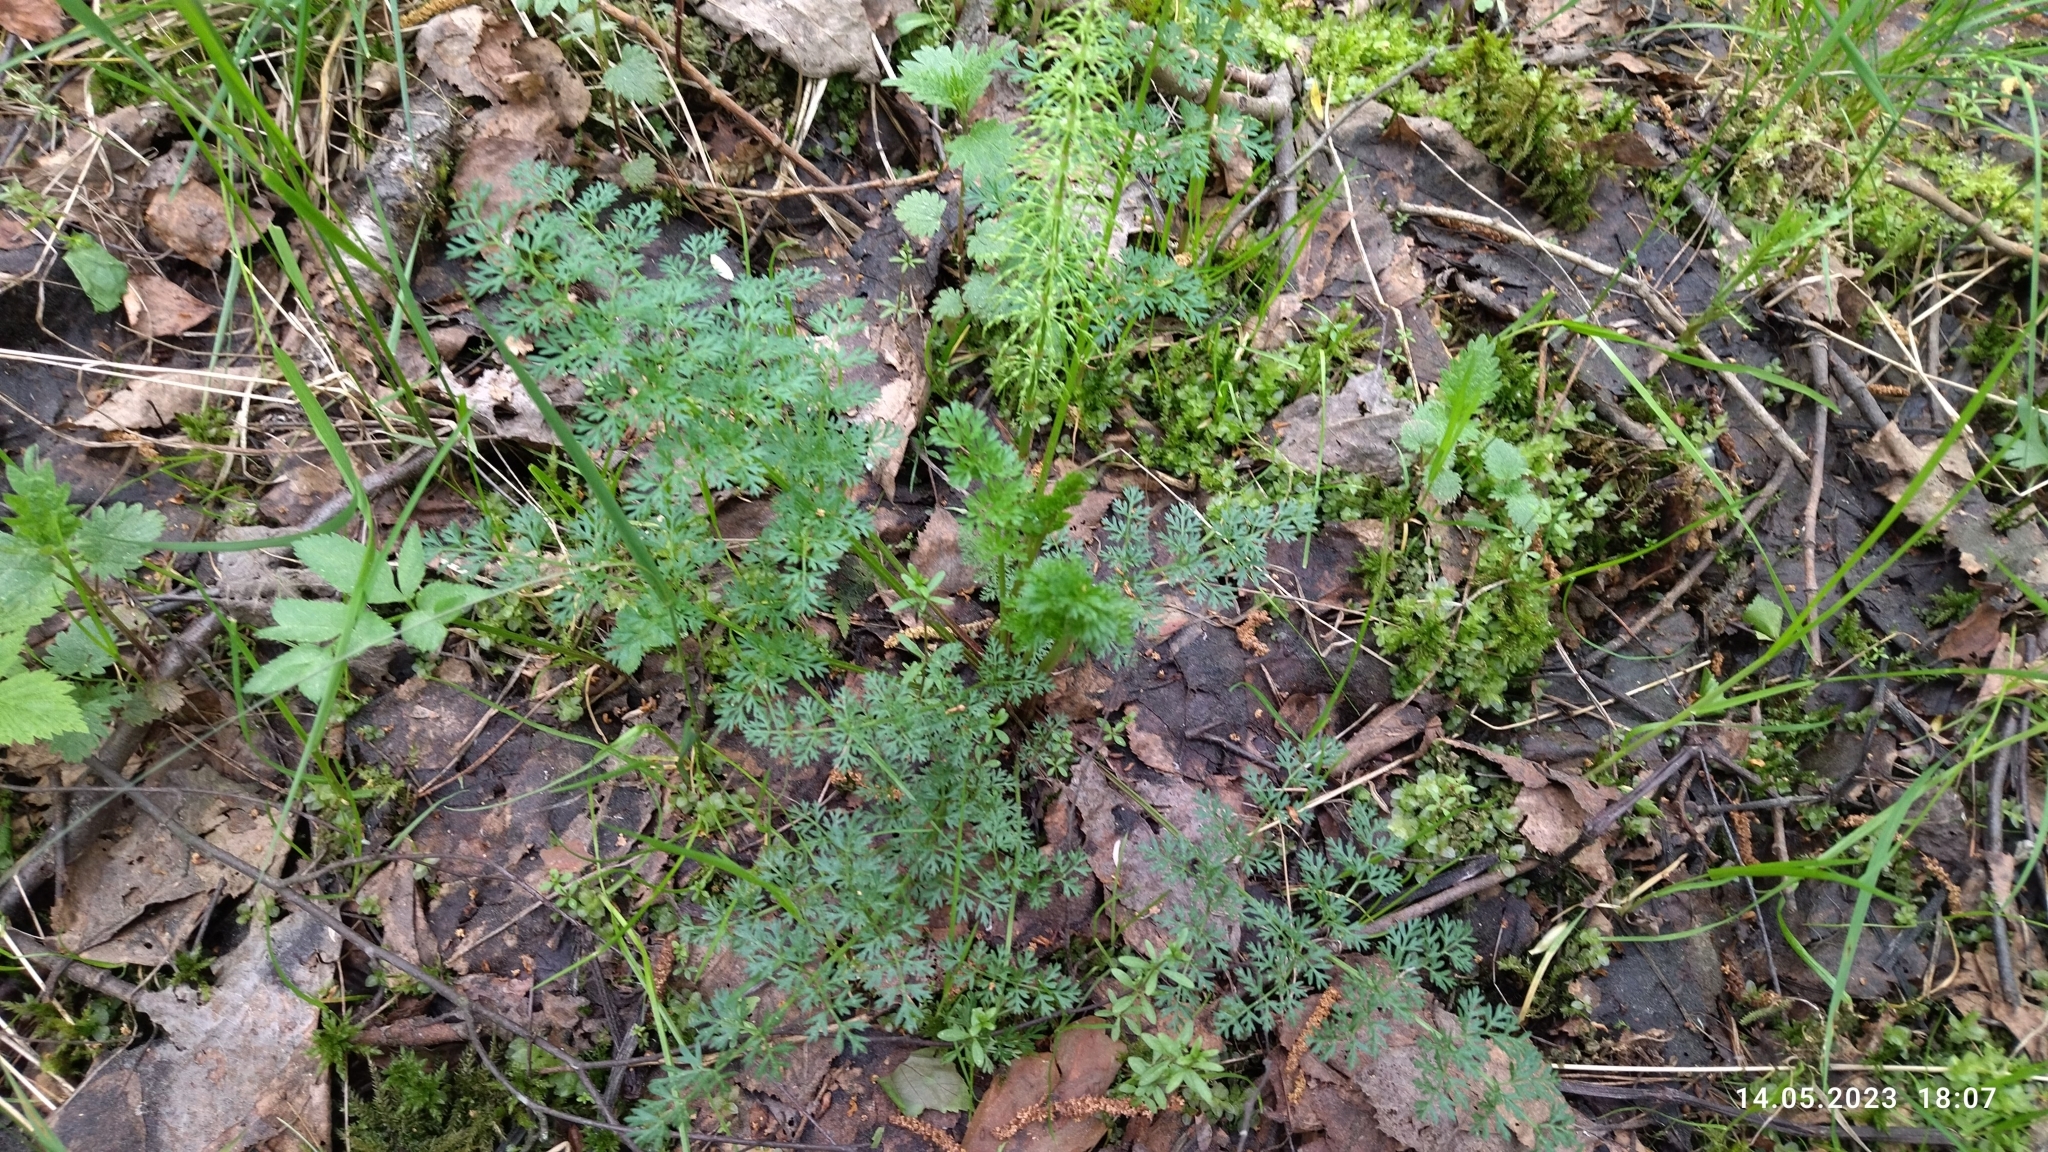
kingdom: Plantae
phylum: Tracheophyta
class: Magnoliopsida
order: Apiales
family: Apiaceae
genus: Selinum
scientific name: Selinum carvifolia
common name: Cambridge milk-parsley
